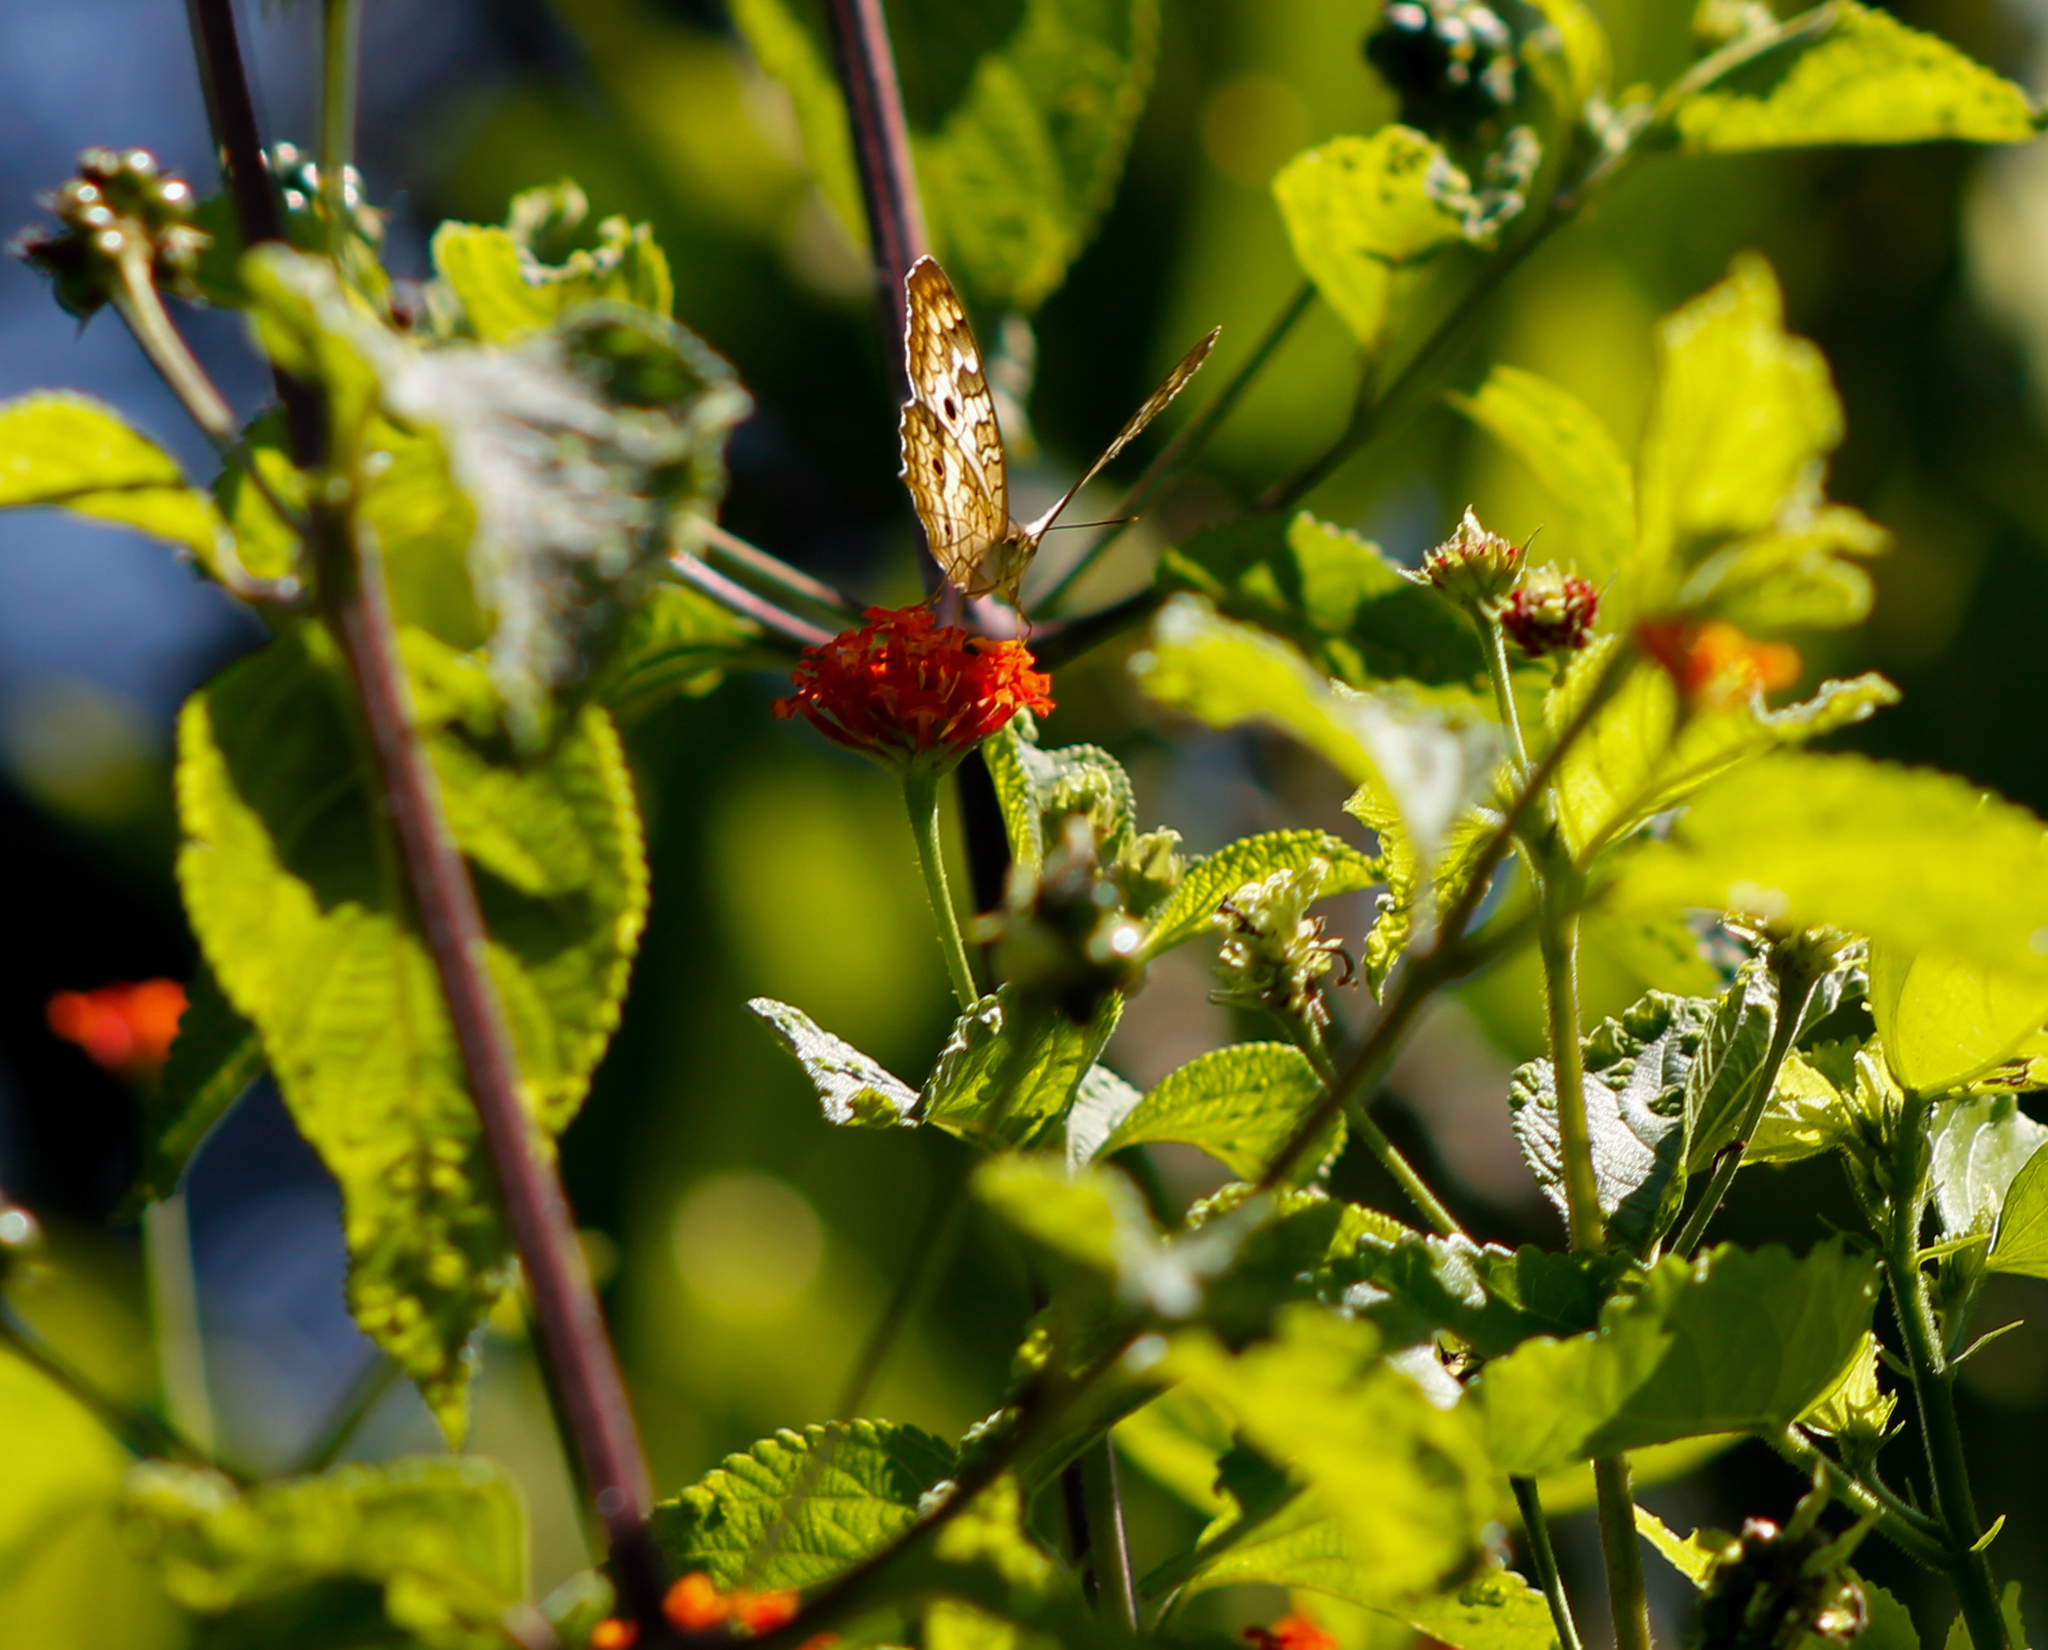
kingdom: Animalia
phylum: Arthropoda
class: Insecta
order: Lepidoptera
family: Nymphalidae
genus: Anartia
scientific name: Anartia jatrophae
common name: White peacock
